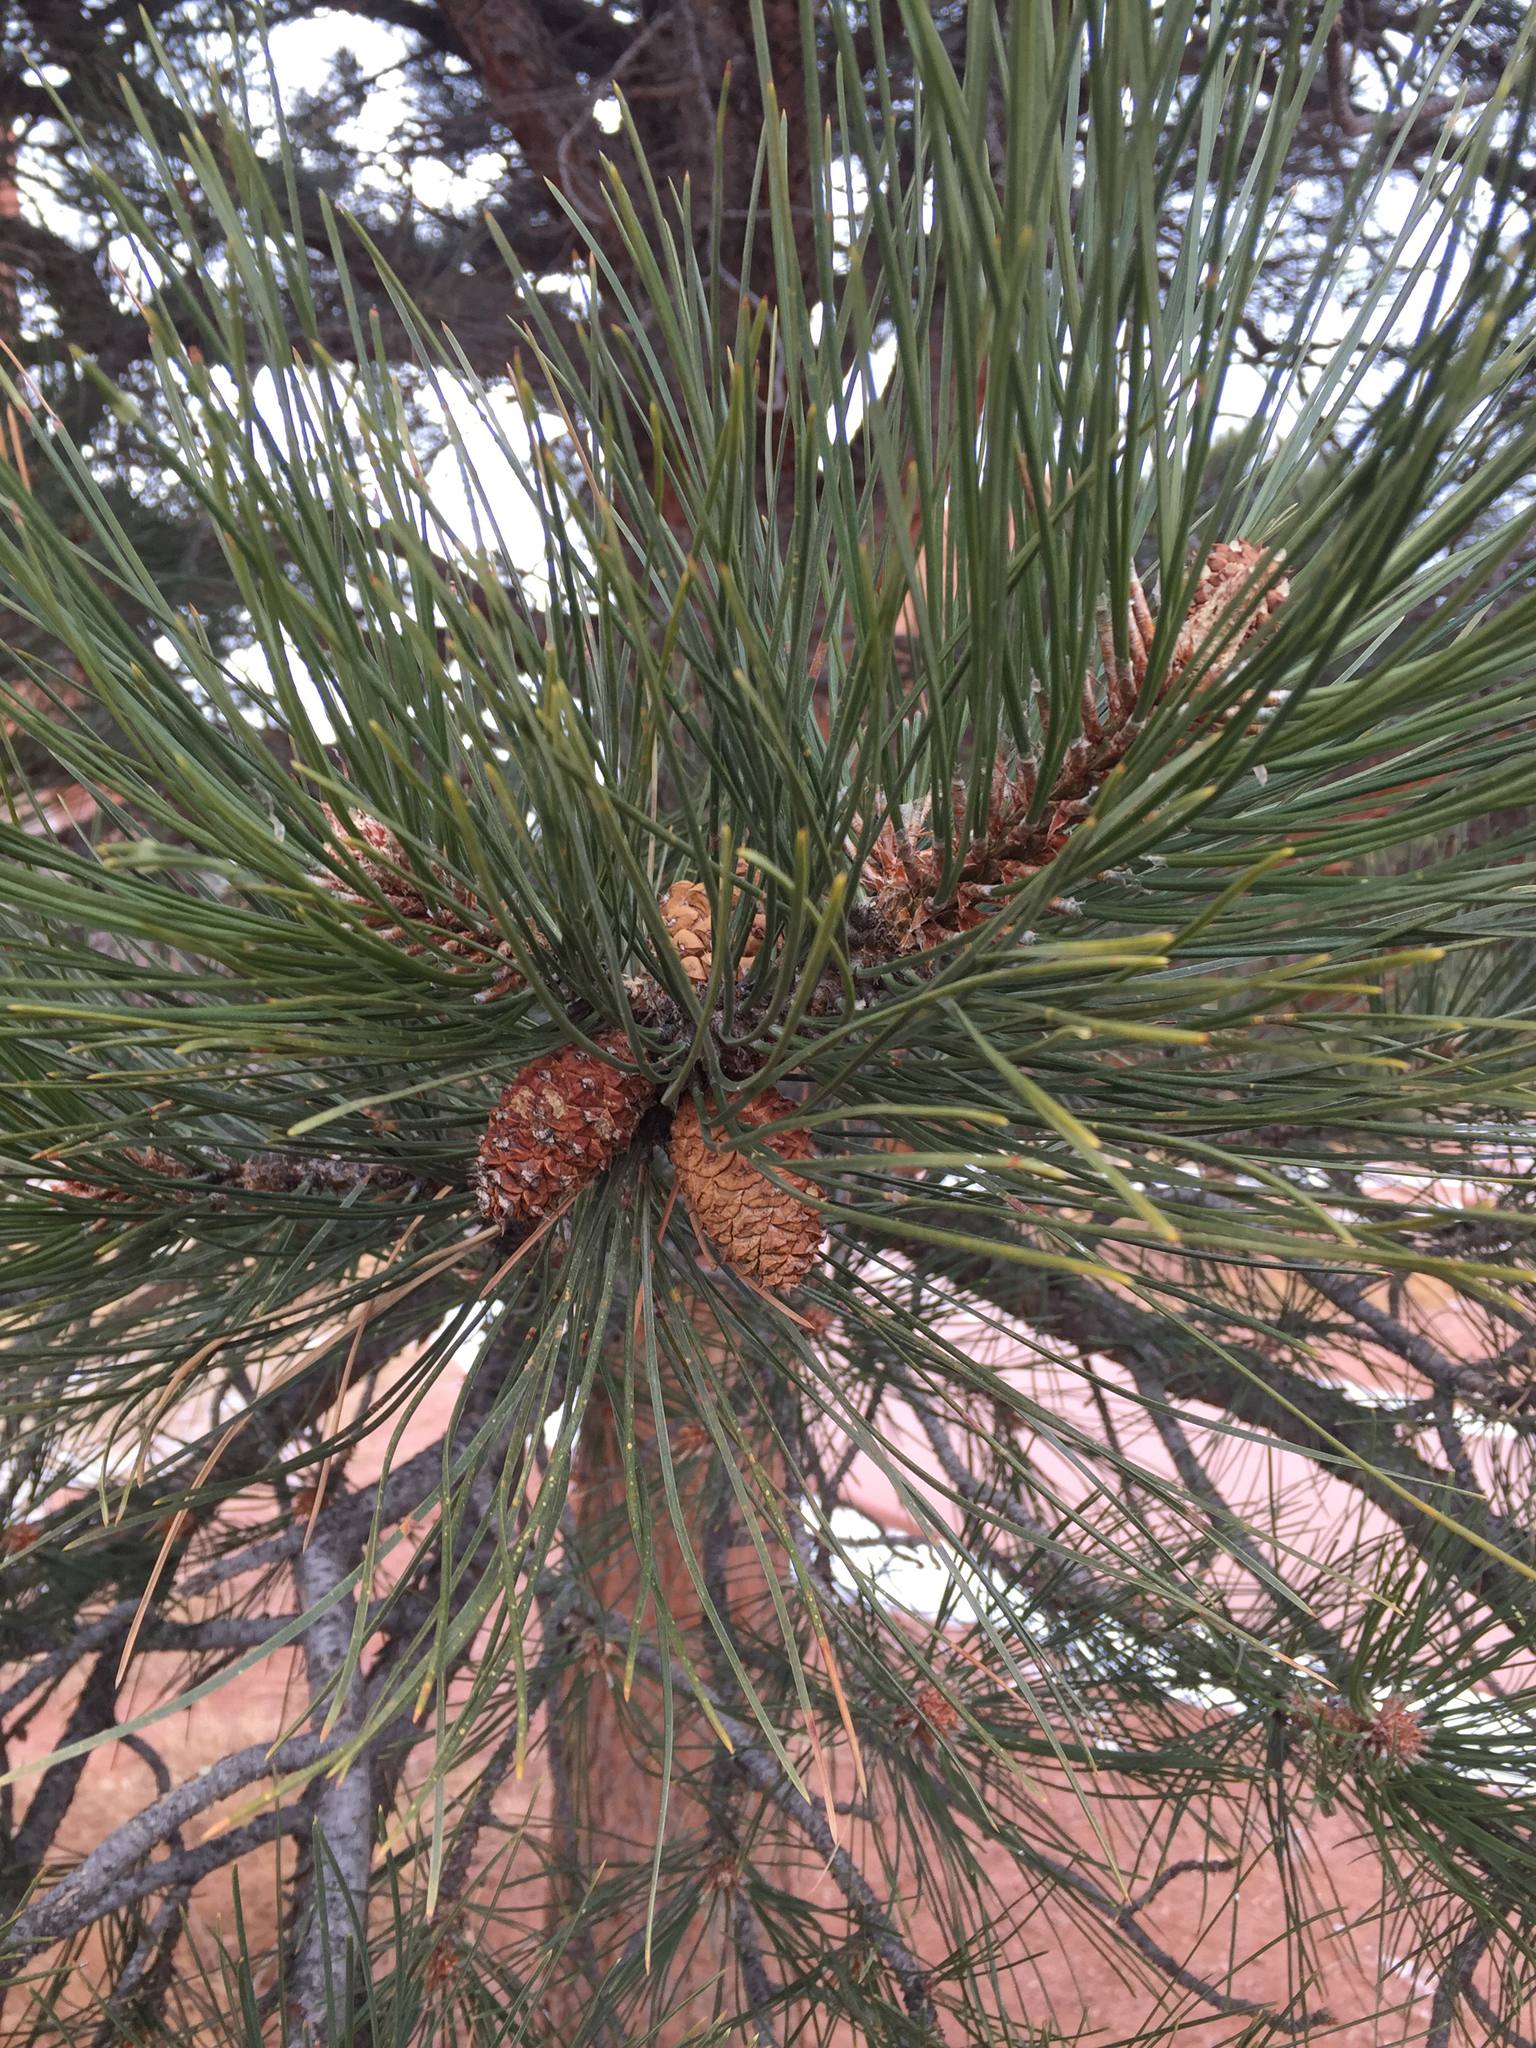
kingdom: Plantae
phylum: Tracheophyta
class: Pinopsida
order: Pinales
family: Pinaceae
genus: Pinus
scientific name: Pinus ponderosa
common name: Western yellow-pine
